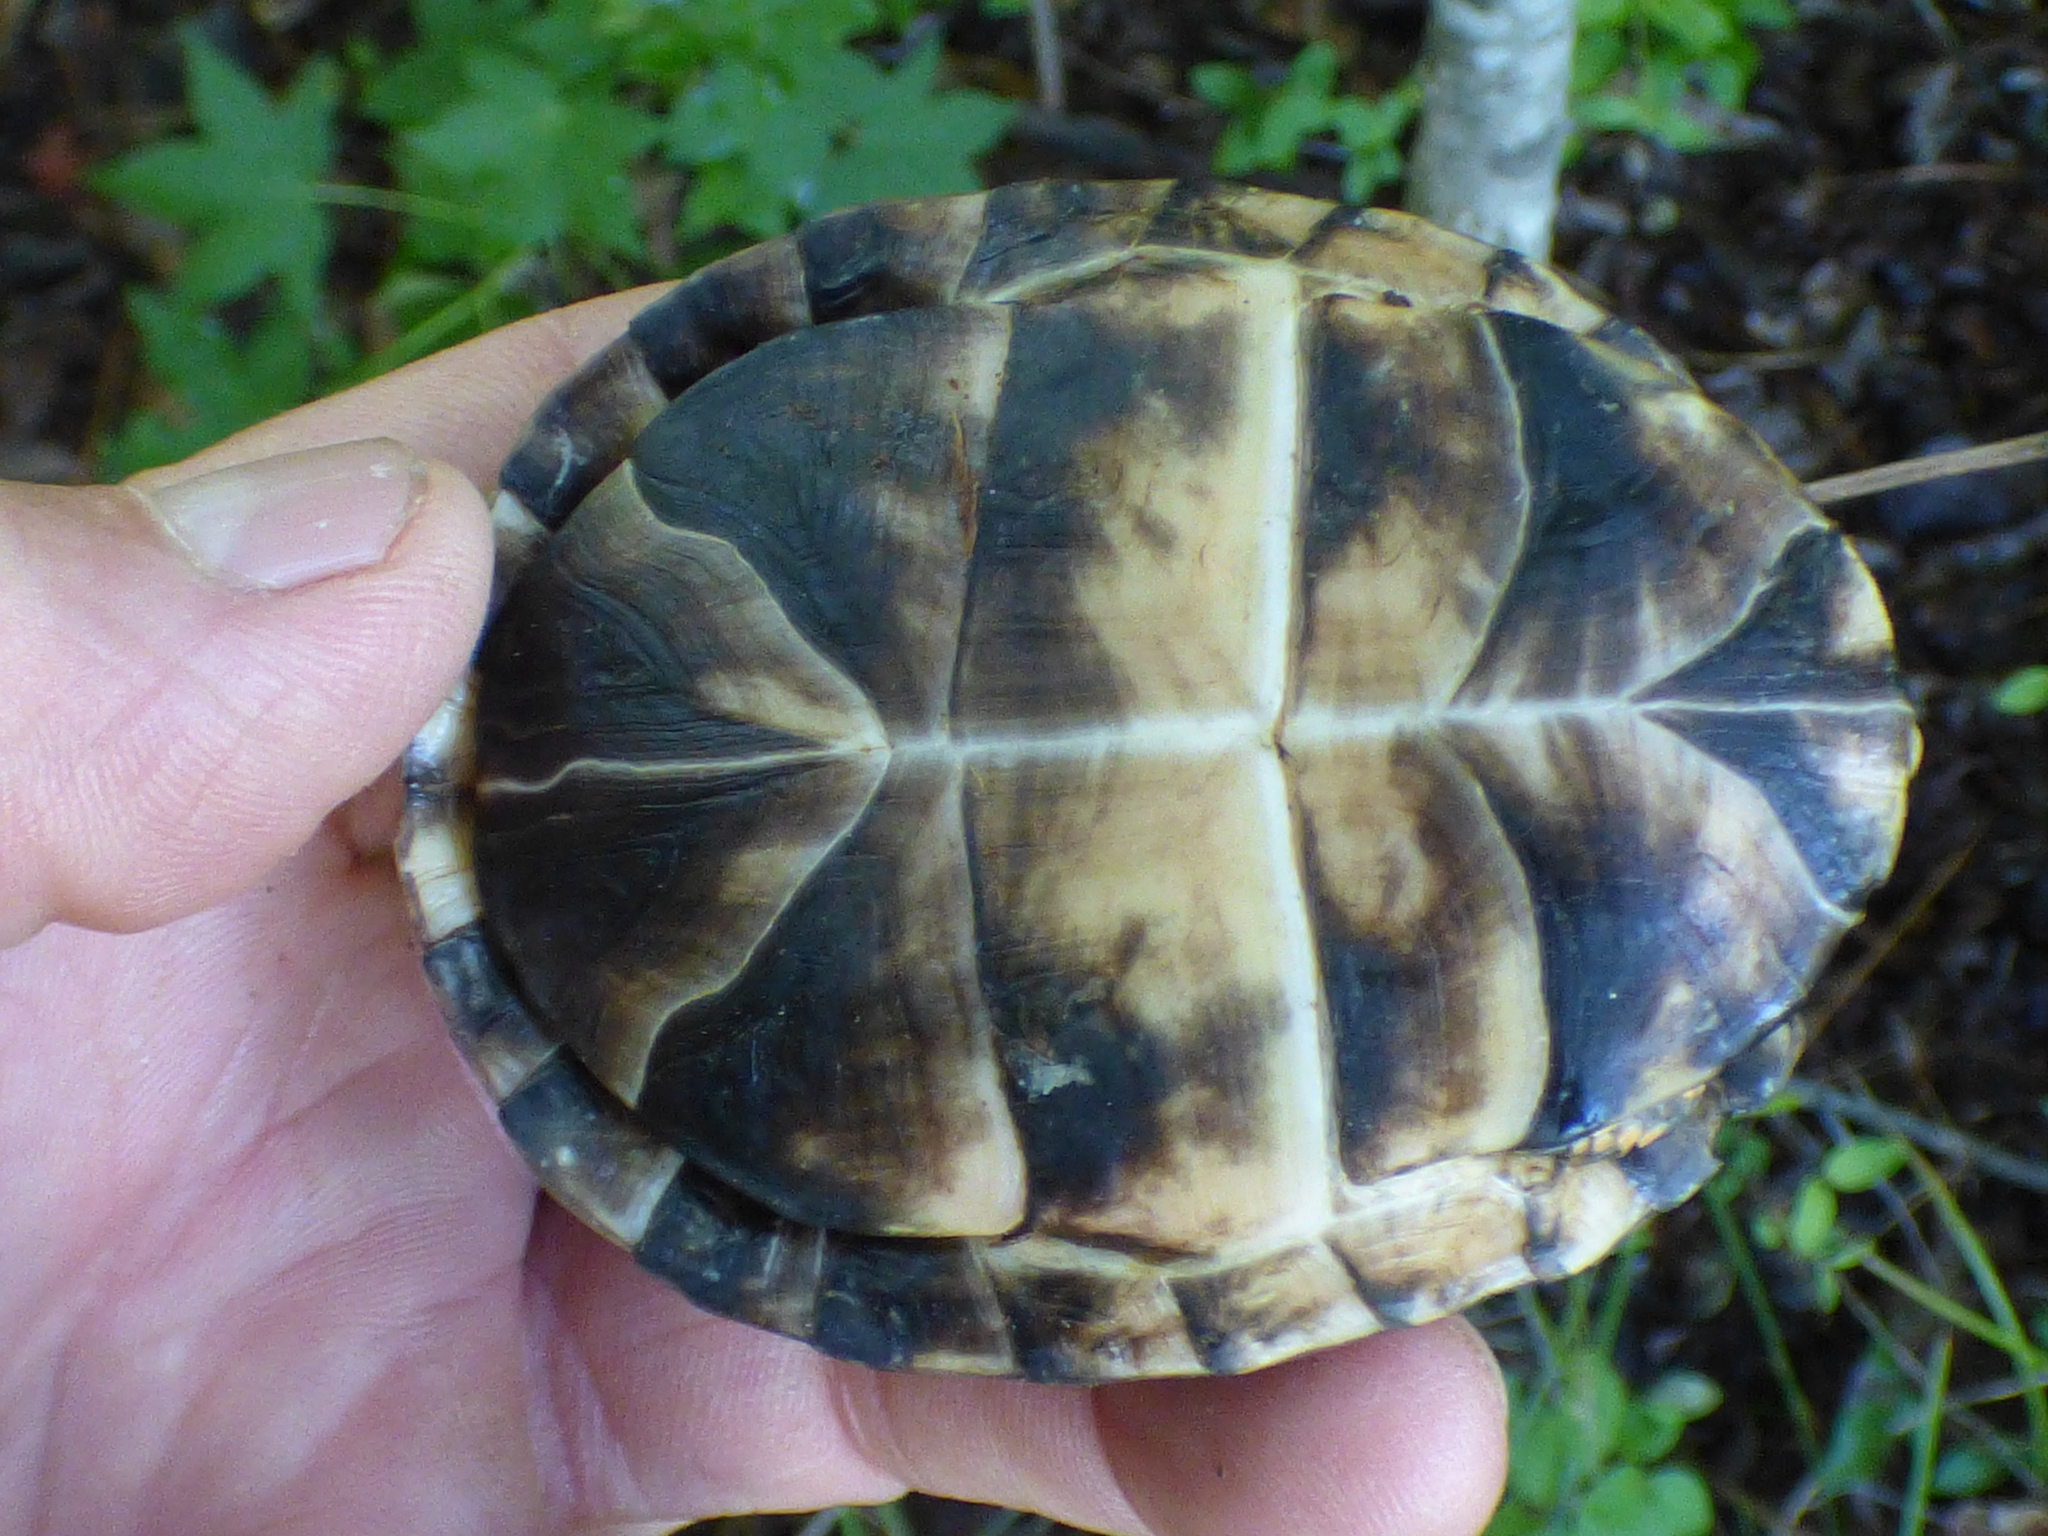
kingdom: Animalia
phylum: Chordata
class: Testudines
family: Emydidae
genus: Terrapene
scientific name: Terrapene carolina
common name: Common box turtle
